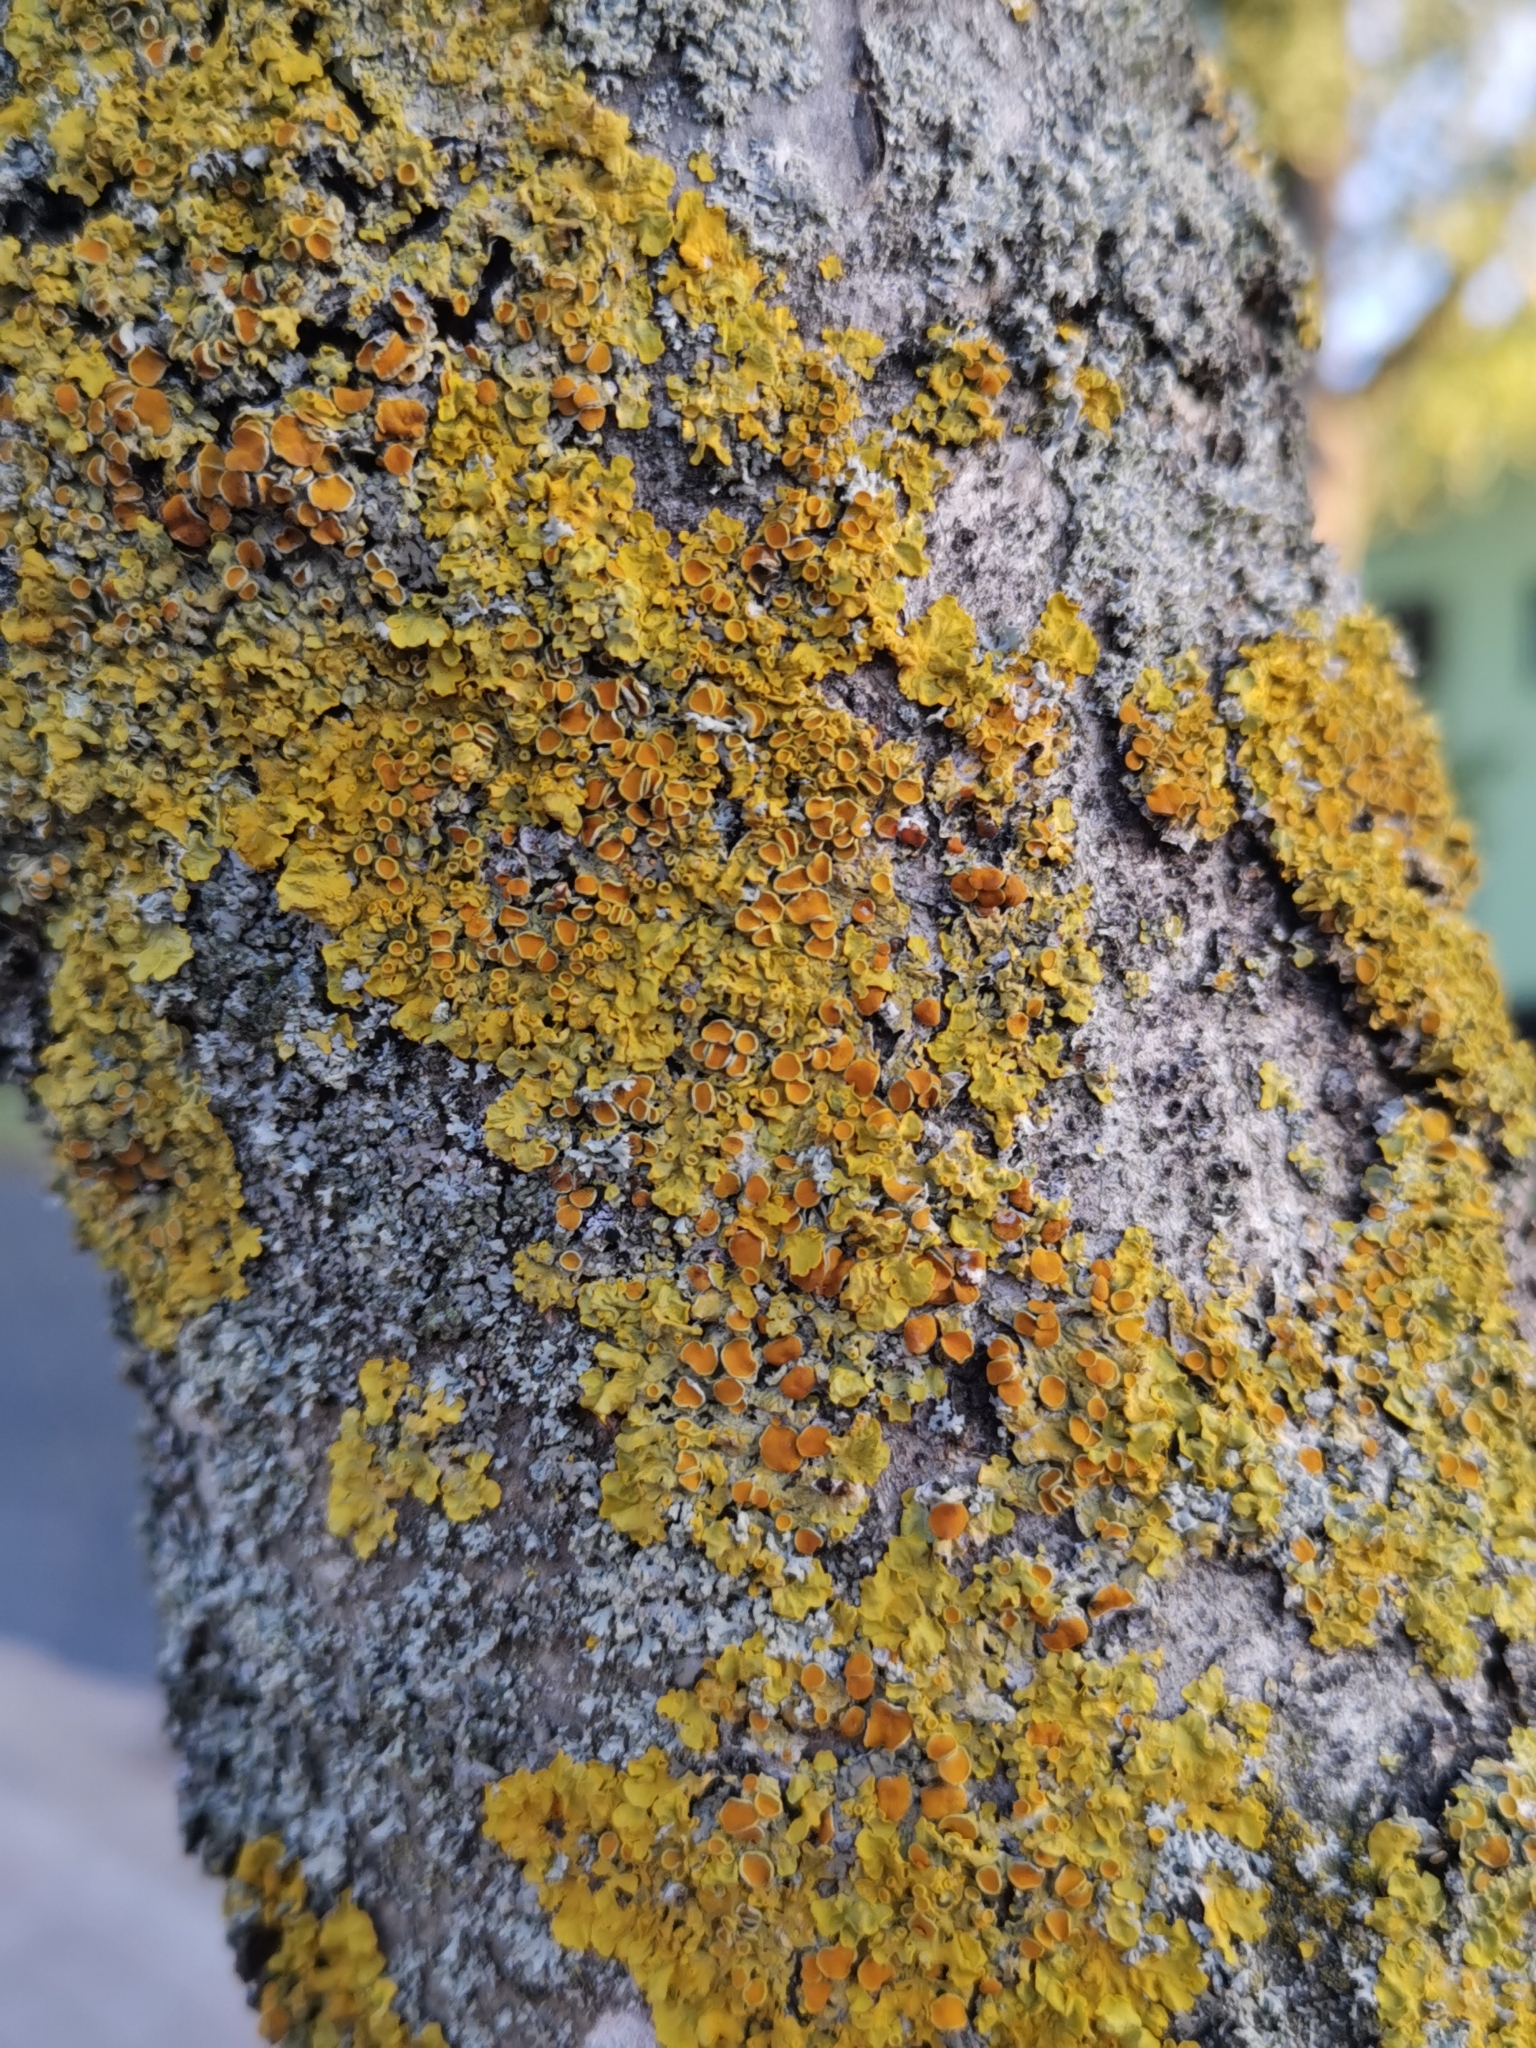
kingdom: Fungi
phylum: Ascomycota
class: Lecanoromycetes
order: Teloschistales
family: Teloschistaceae
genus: Xanthoria
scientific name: Xanthoria parietina
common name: Common orange lichen
